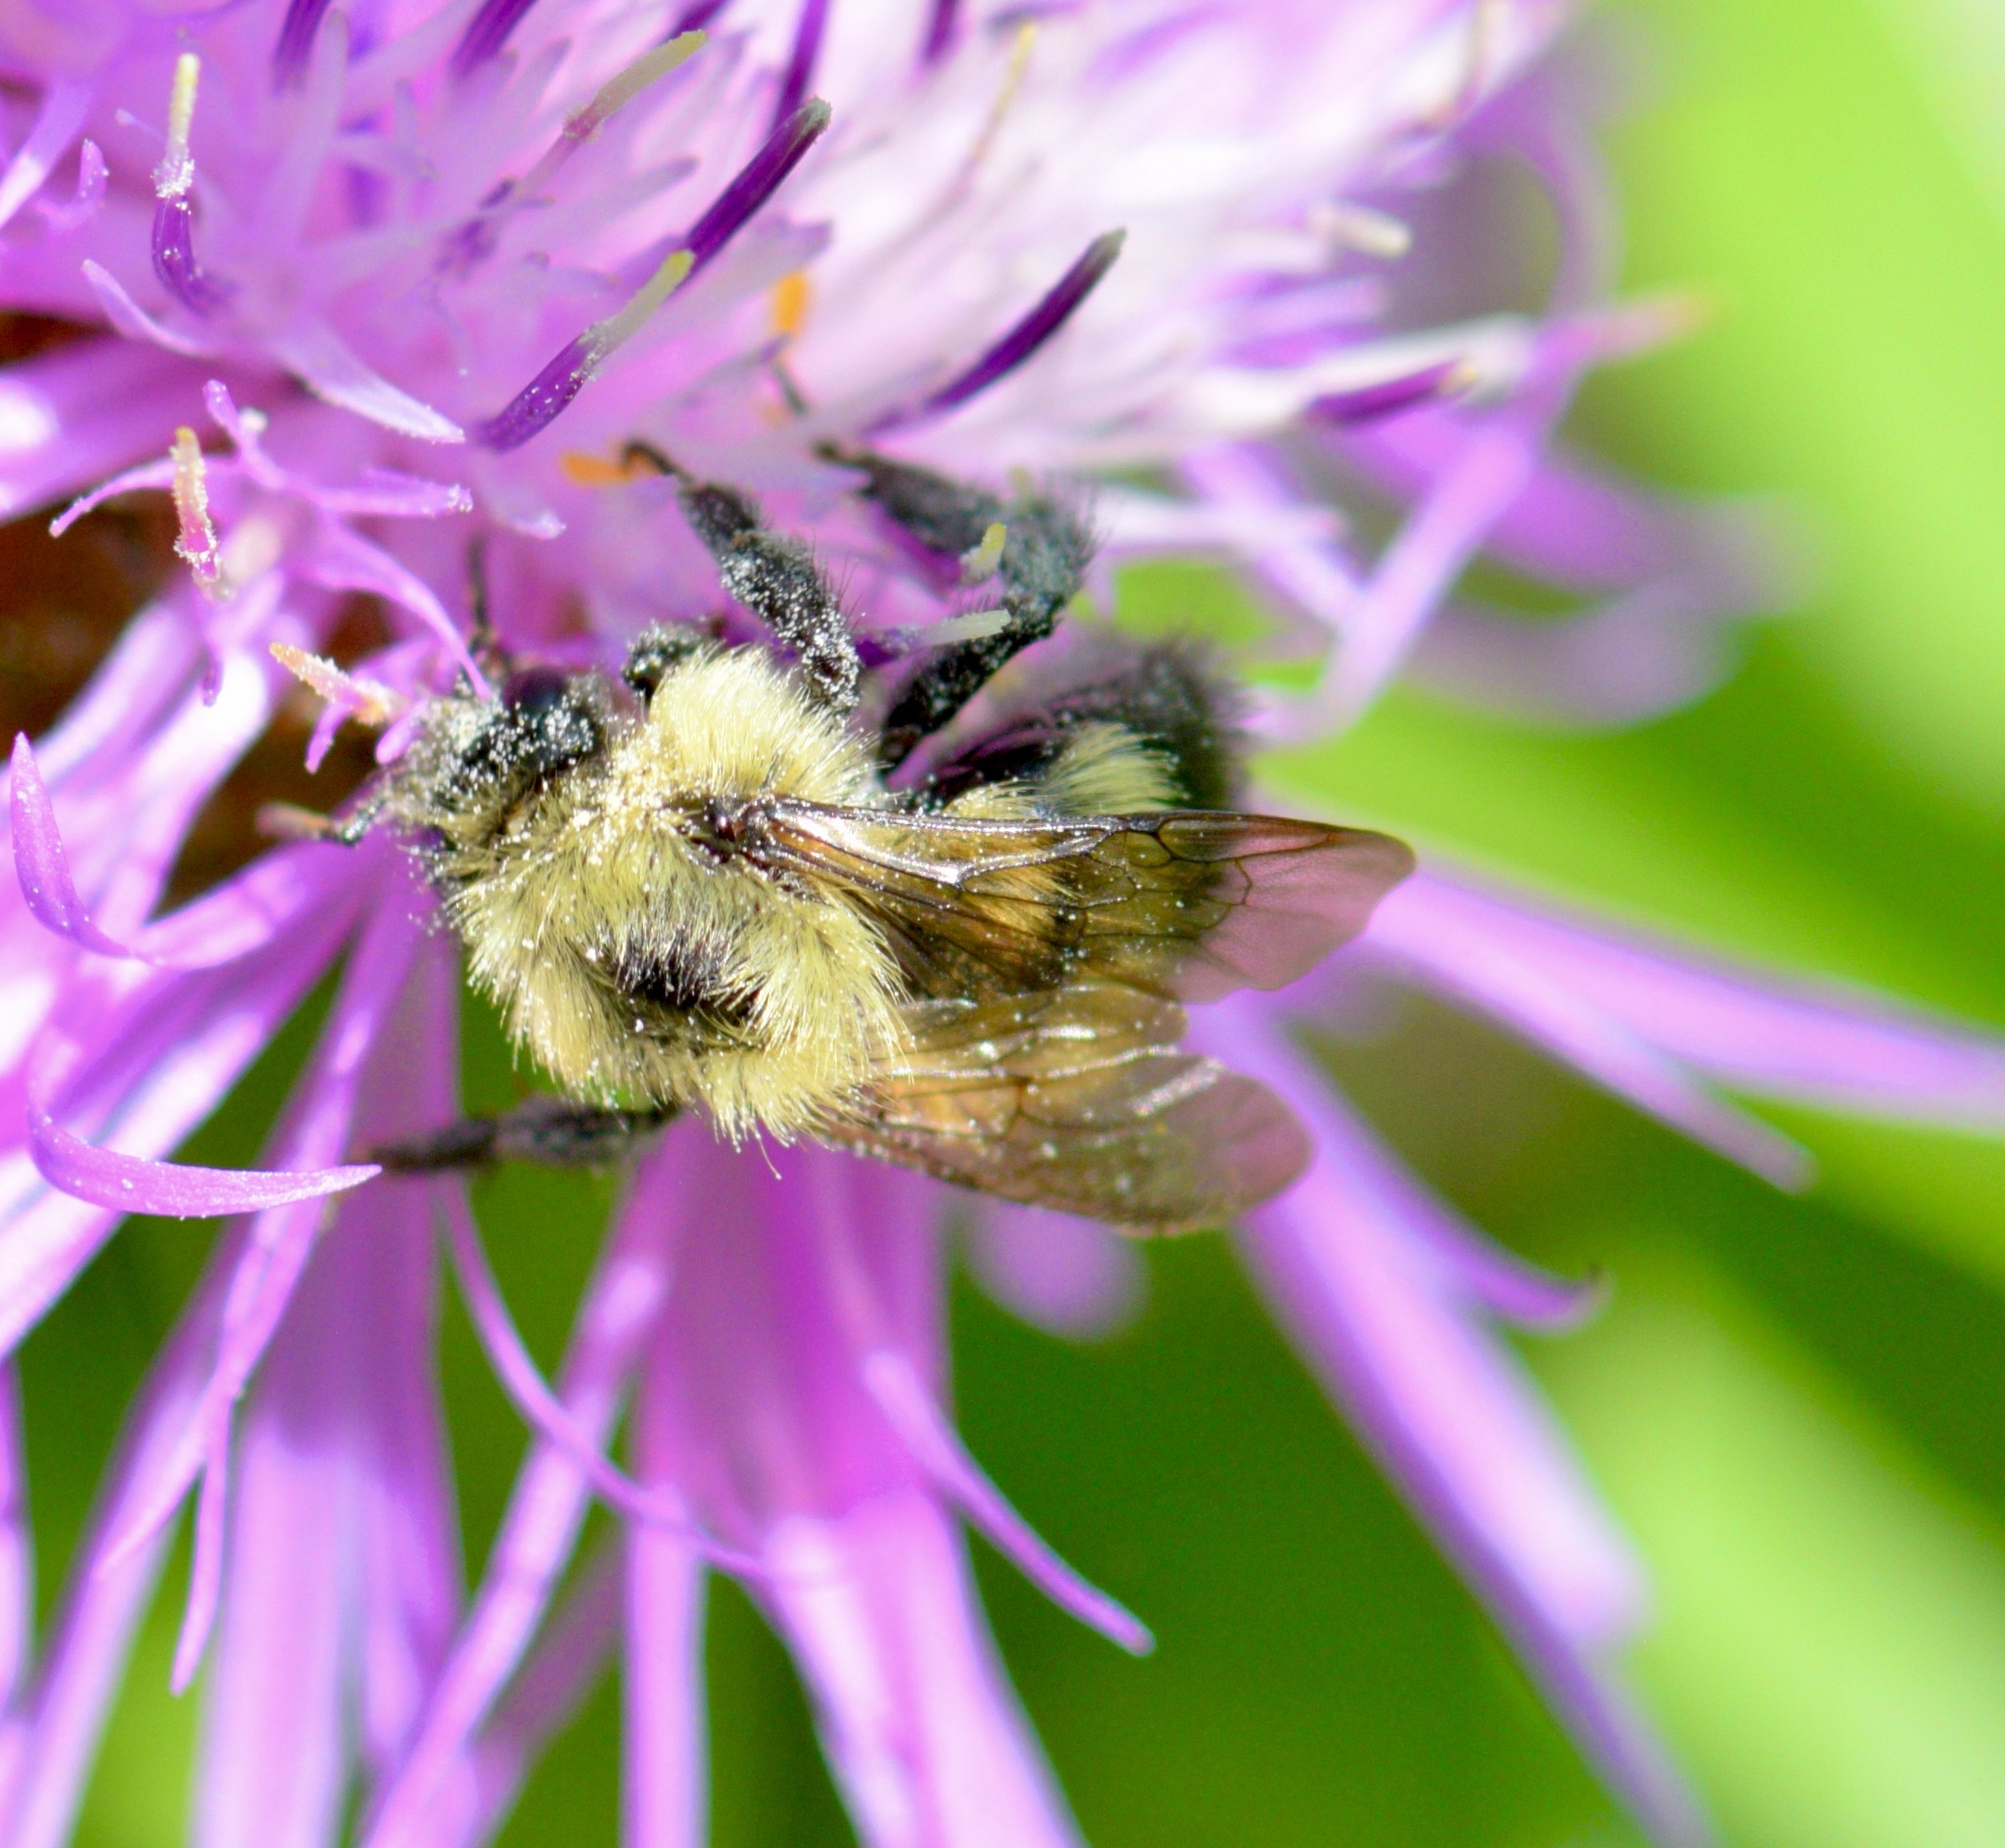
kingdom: Animalia
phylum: Arthropoda
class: Insecta
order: Hymenoptera
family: Apidae
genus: Pyrobombus
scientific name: Pyrobombus
